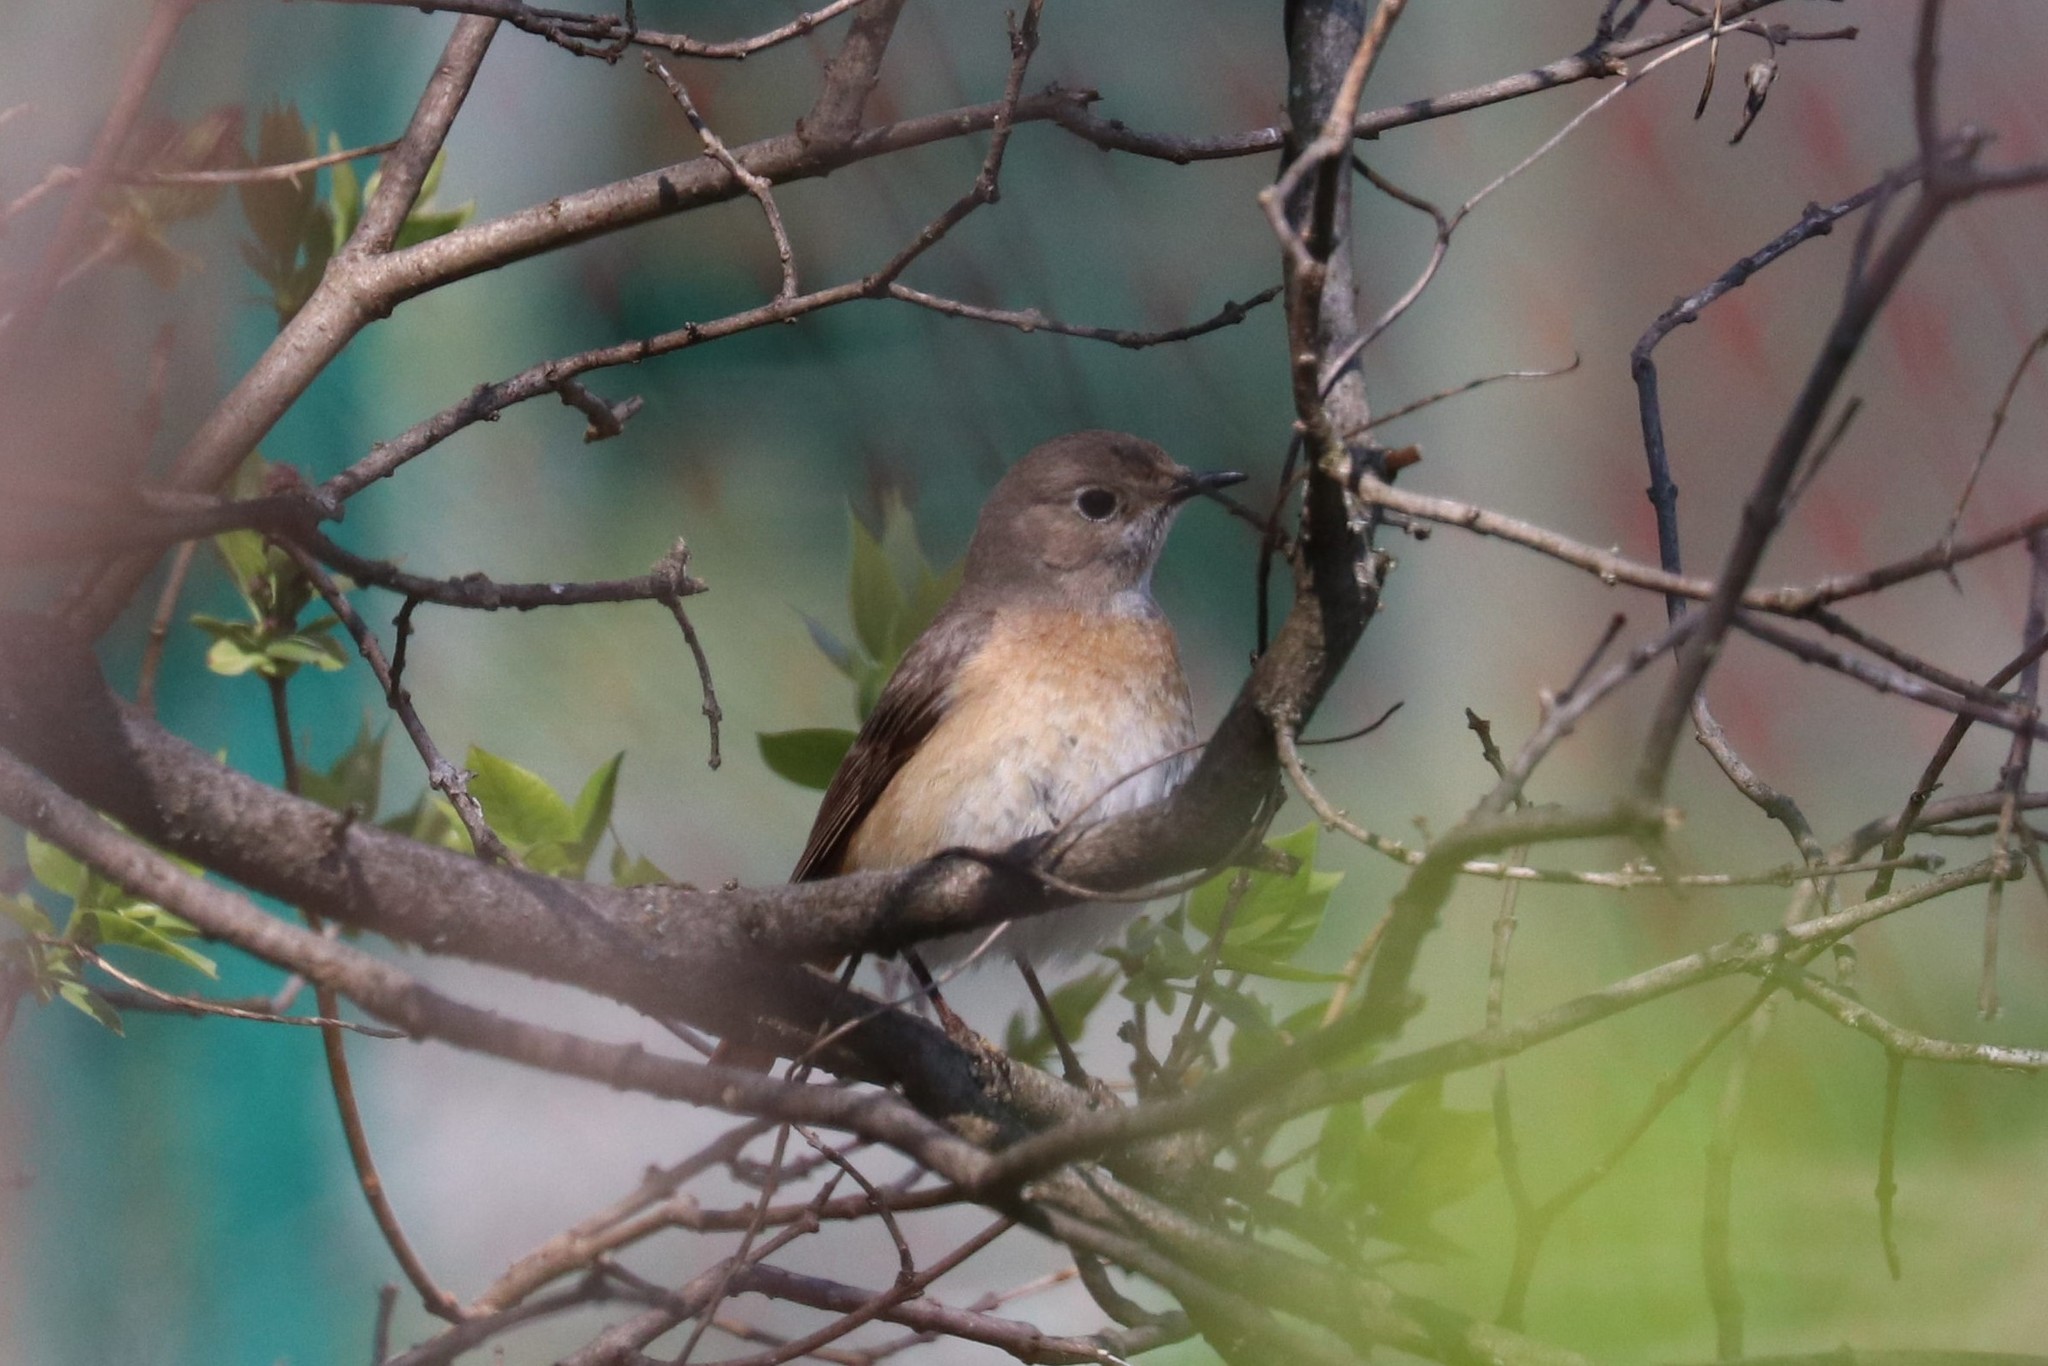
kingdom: Animalia
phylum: Chordata
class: Aves
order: Passeriformes
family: Muscicapidae
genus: Phoenicurus
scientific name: Phoenicurus phoenicurus
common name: Common redstart
